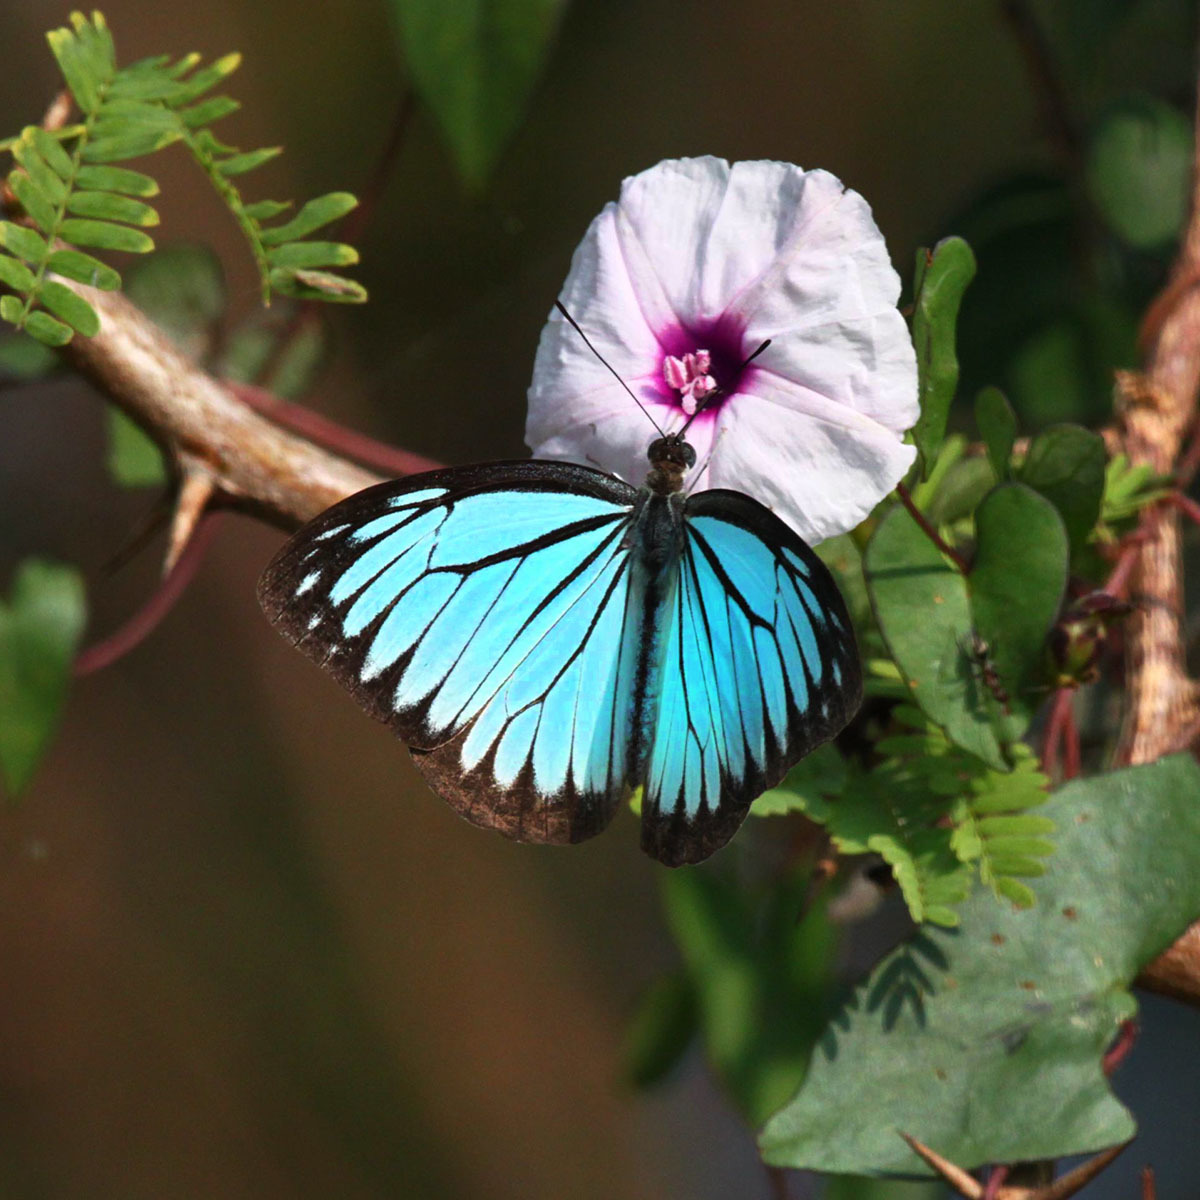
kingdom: Animalia
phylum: Arthropoda
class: Insecta
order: Lepidoptera
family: Pieridae
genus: Pareronia
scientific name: Pareronia hippia
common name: Indian wanderer
